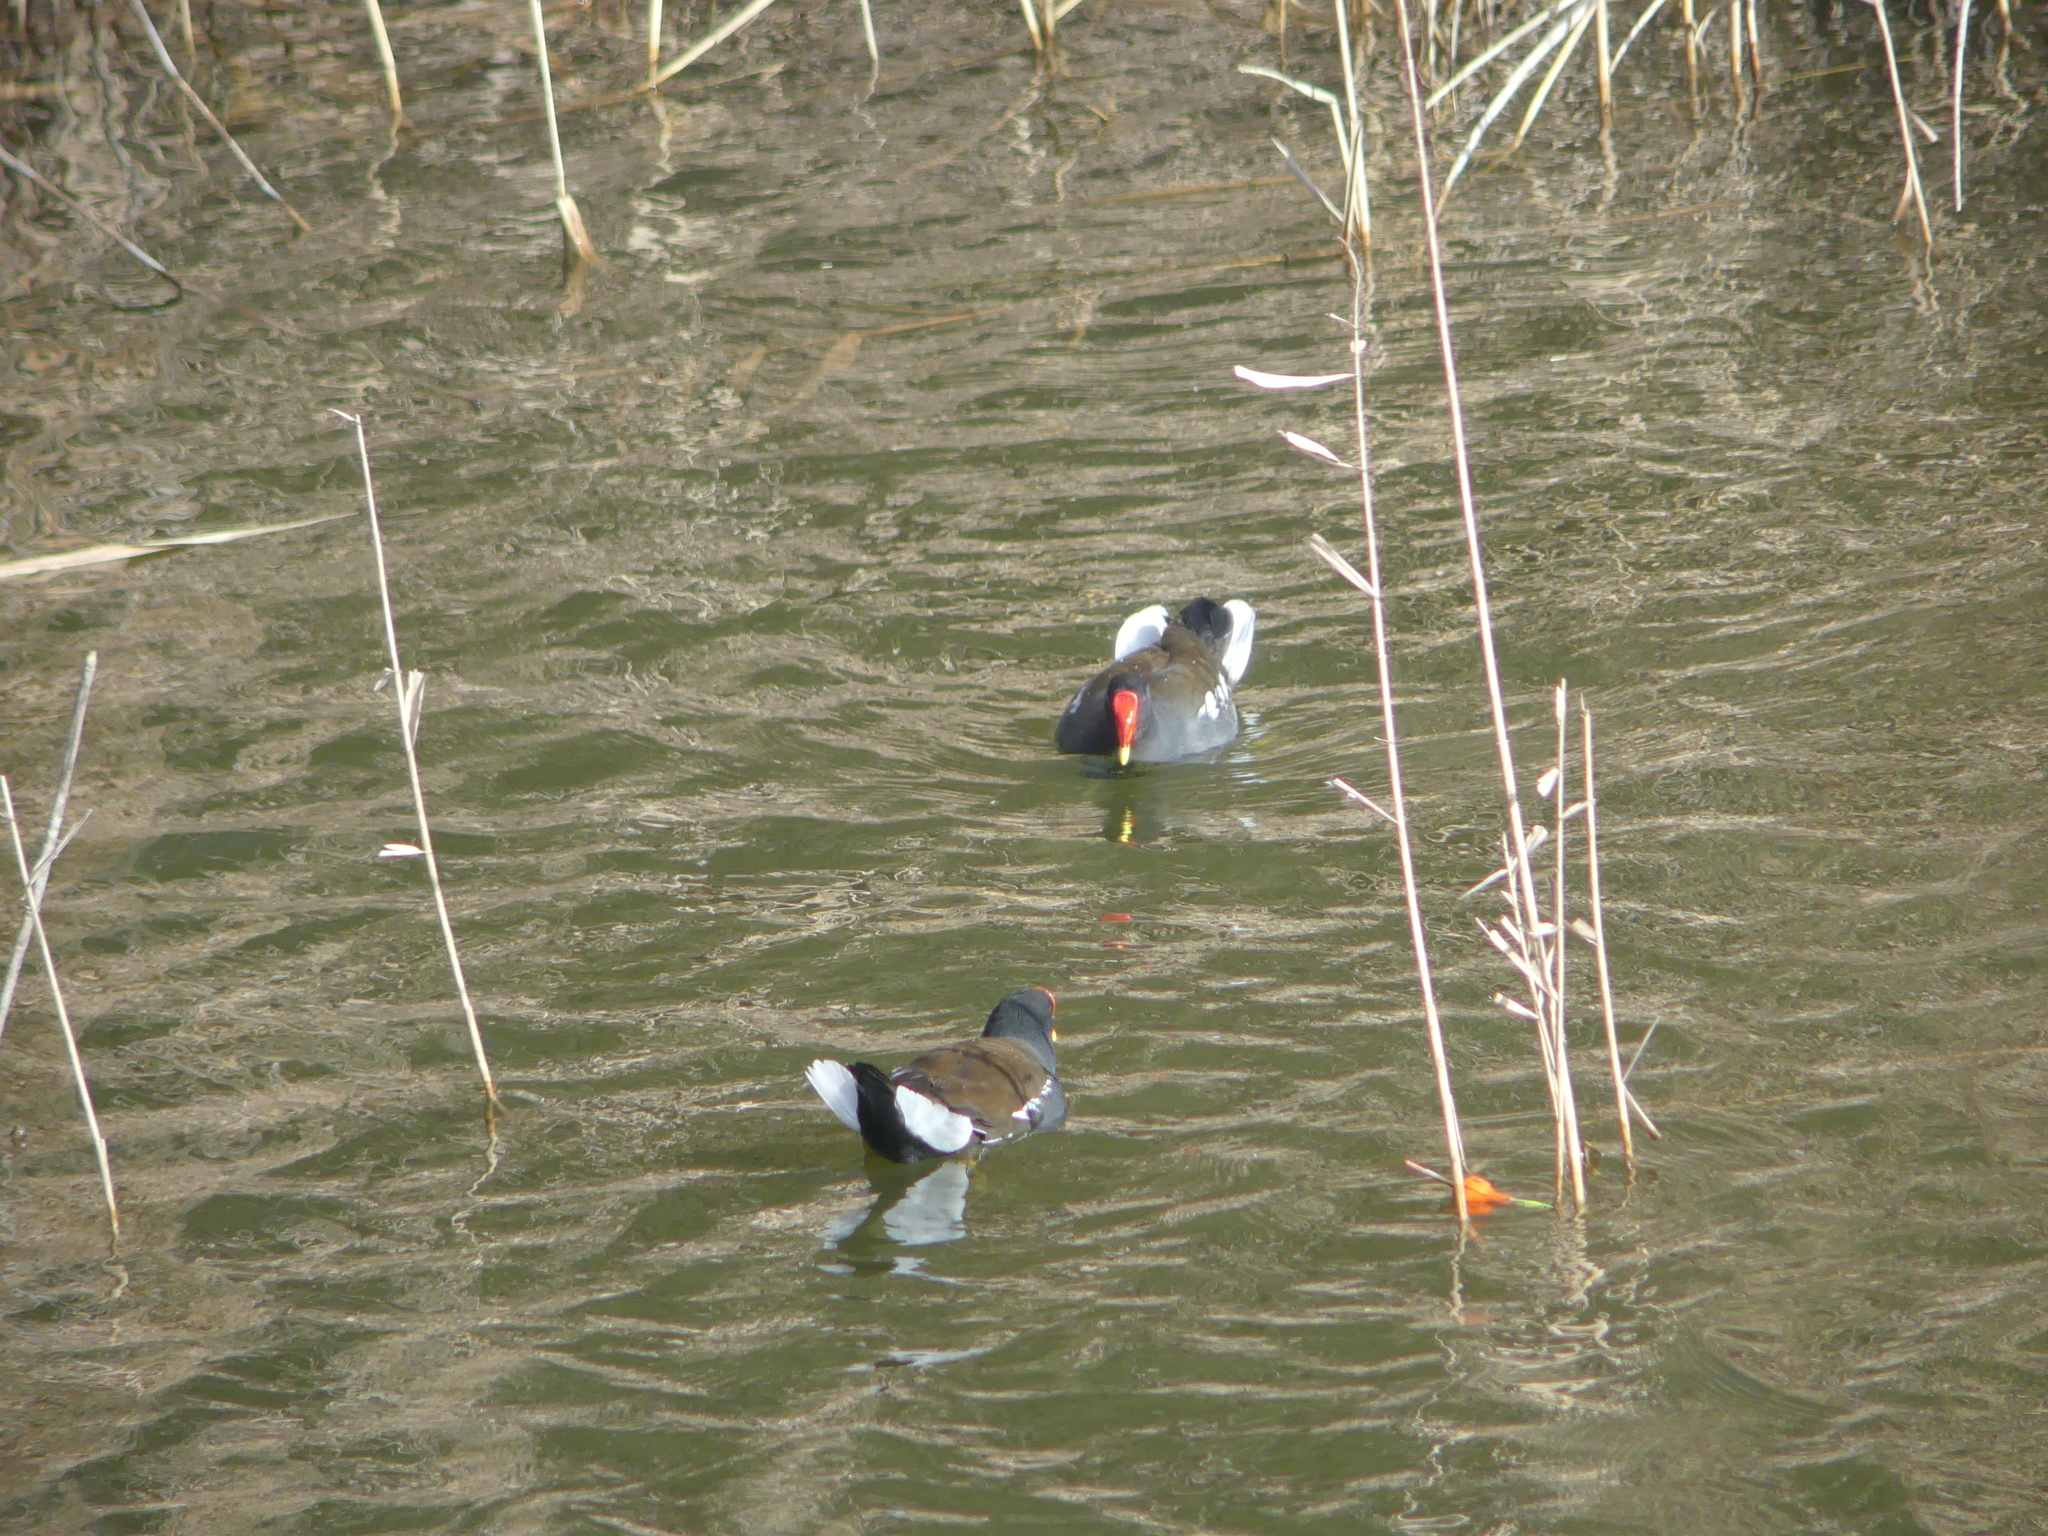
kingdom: Animalia
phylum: Chordata
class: Aves
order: Gruiformes
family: Rallidae
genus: Gallinula
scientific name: Gallinula chloropus
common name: Common moorhen
